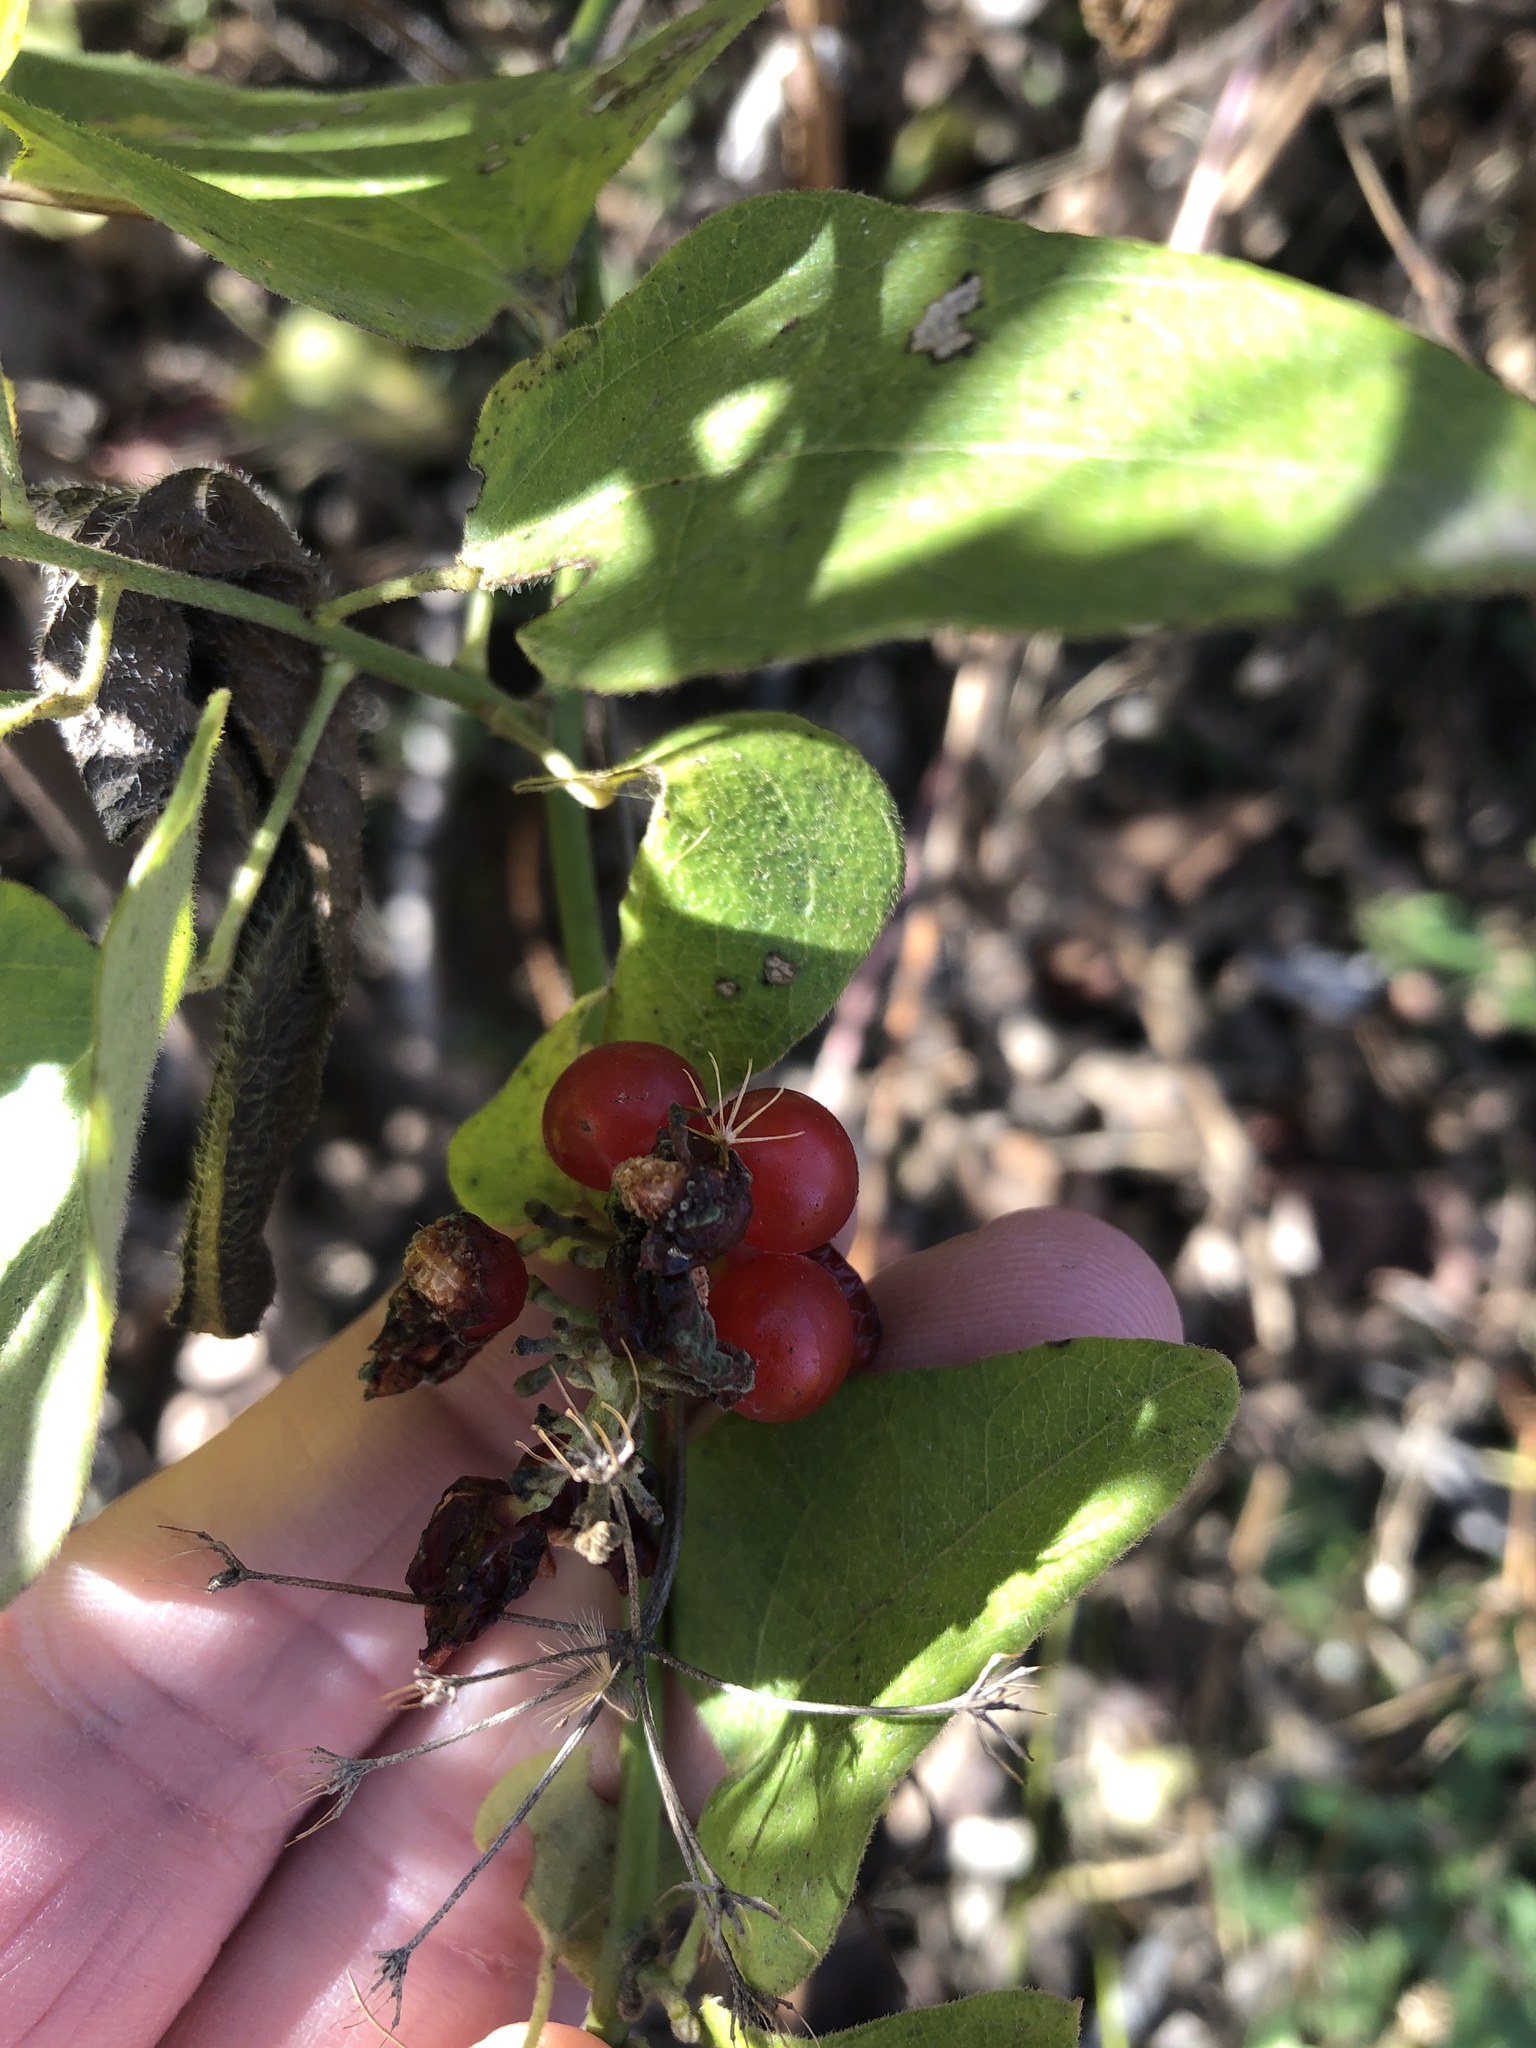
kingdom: Plantae
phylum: Tracheophyta
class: Magnoliopsida
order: Ranunculales
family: Menispermaceae
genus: Cocculus
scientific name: Cocculus carolinus
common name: Carolina moonseed
